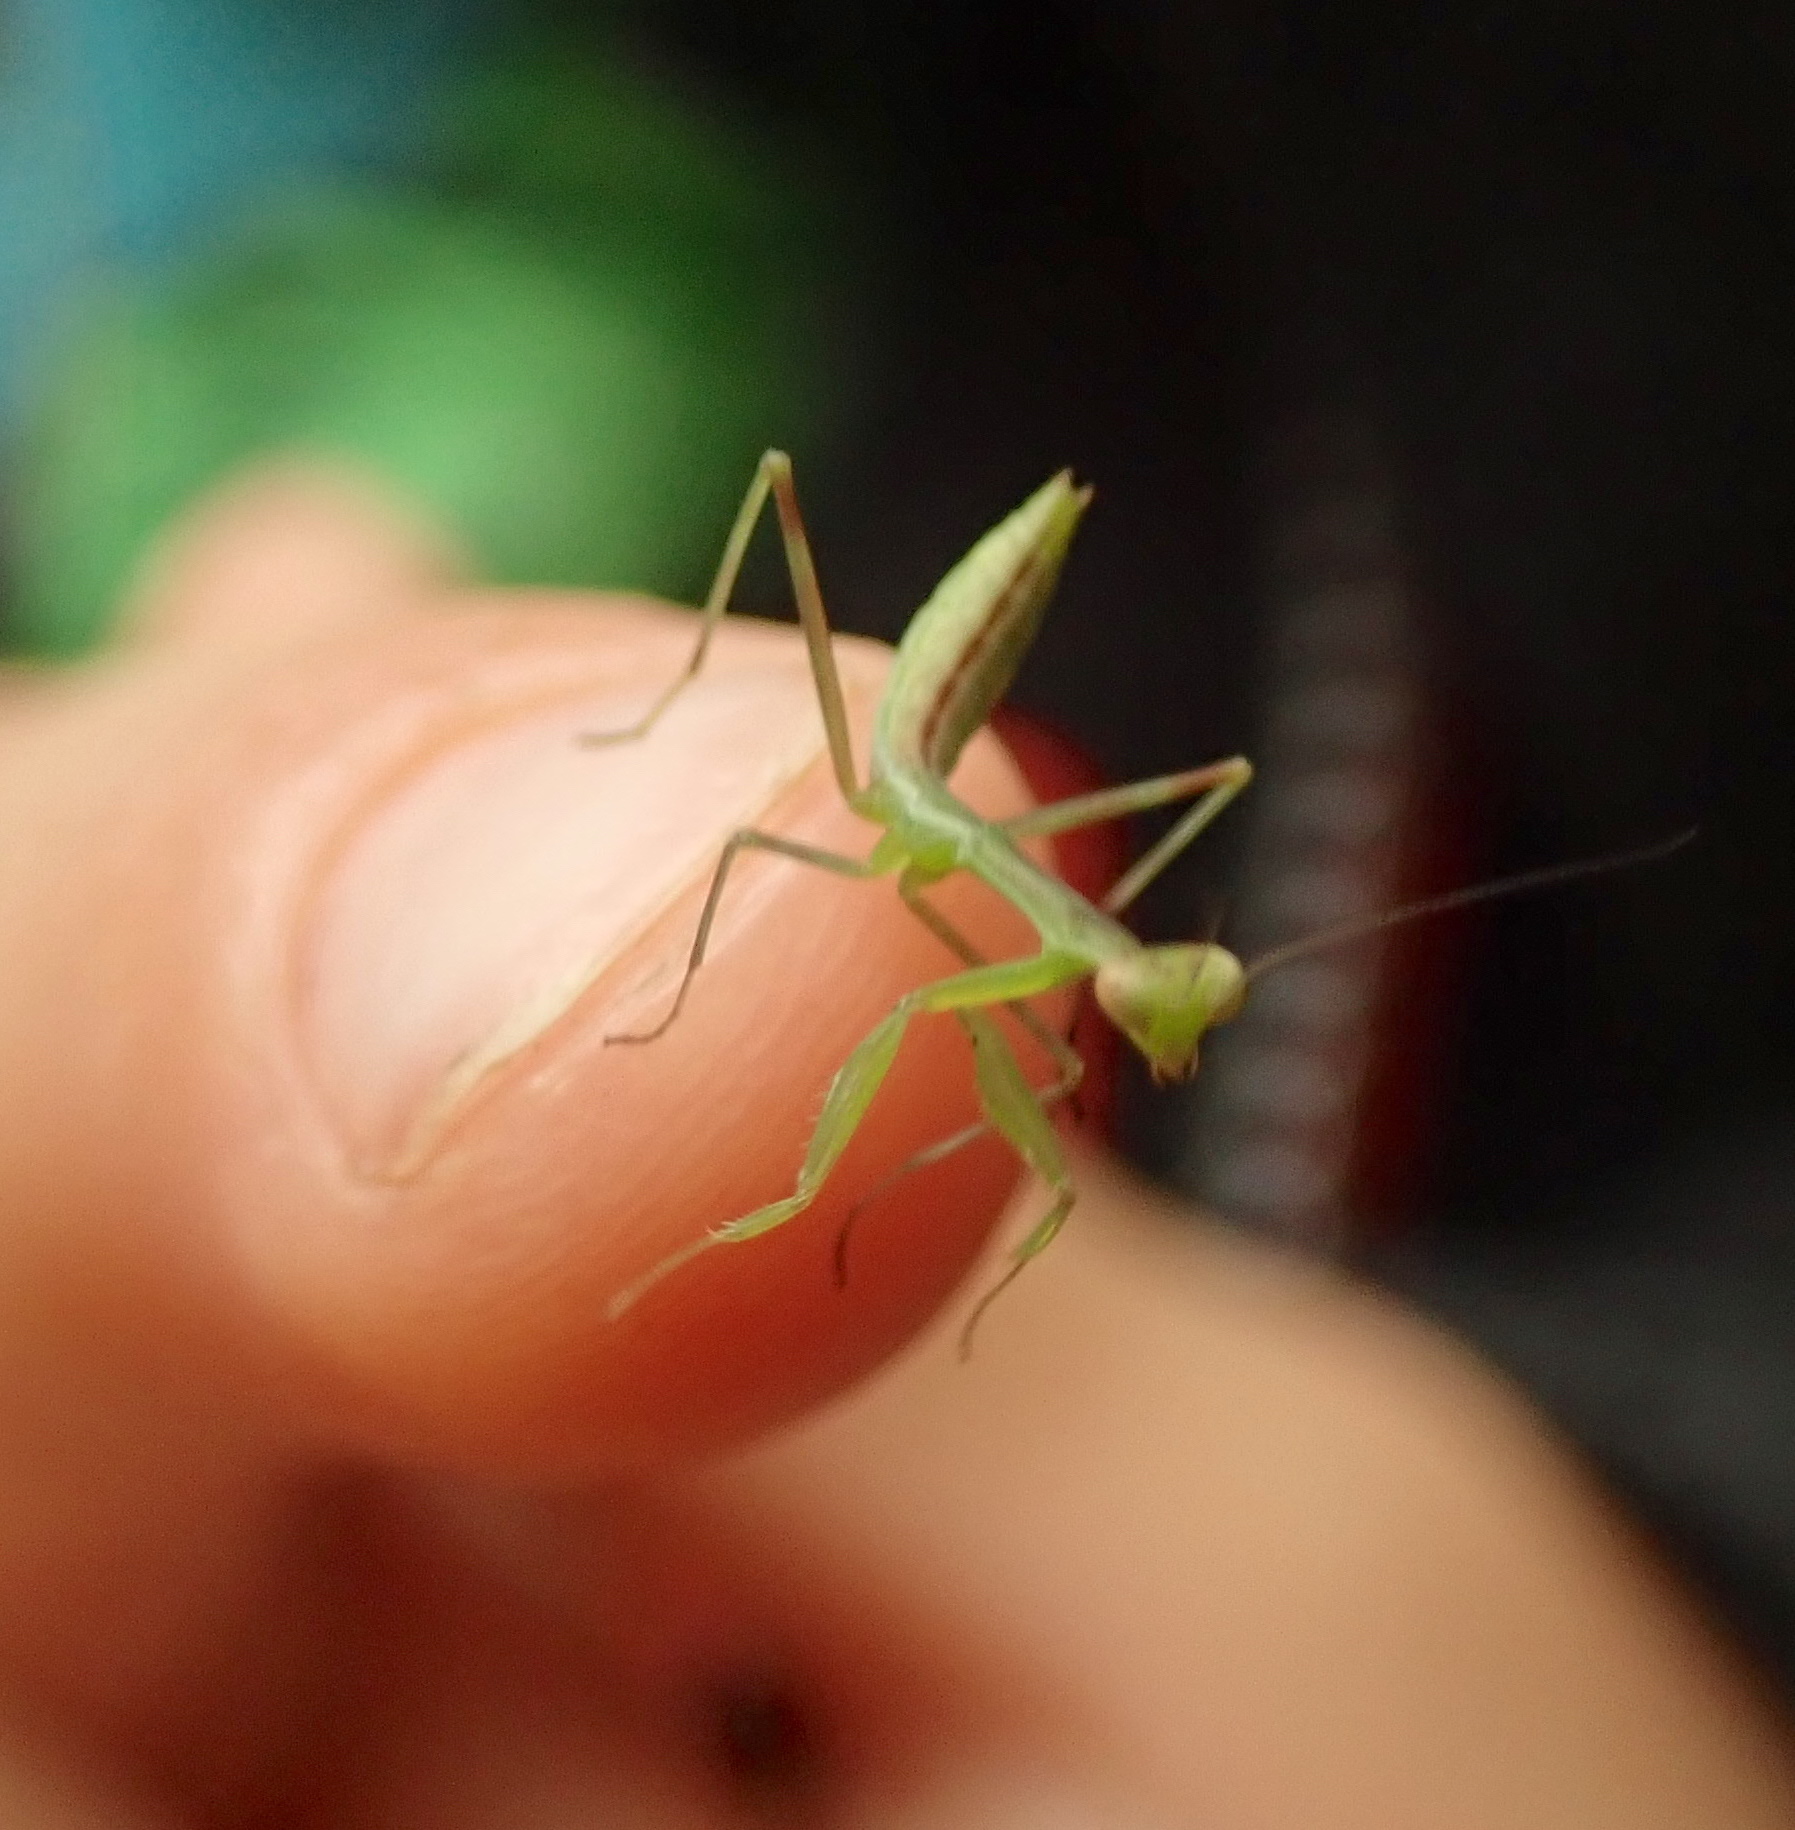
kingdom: Animalia
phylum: Arthropoda
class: Insecta
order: Mantodea
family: Miomantidae
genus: Miomantis
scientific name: Miomantis caffra
